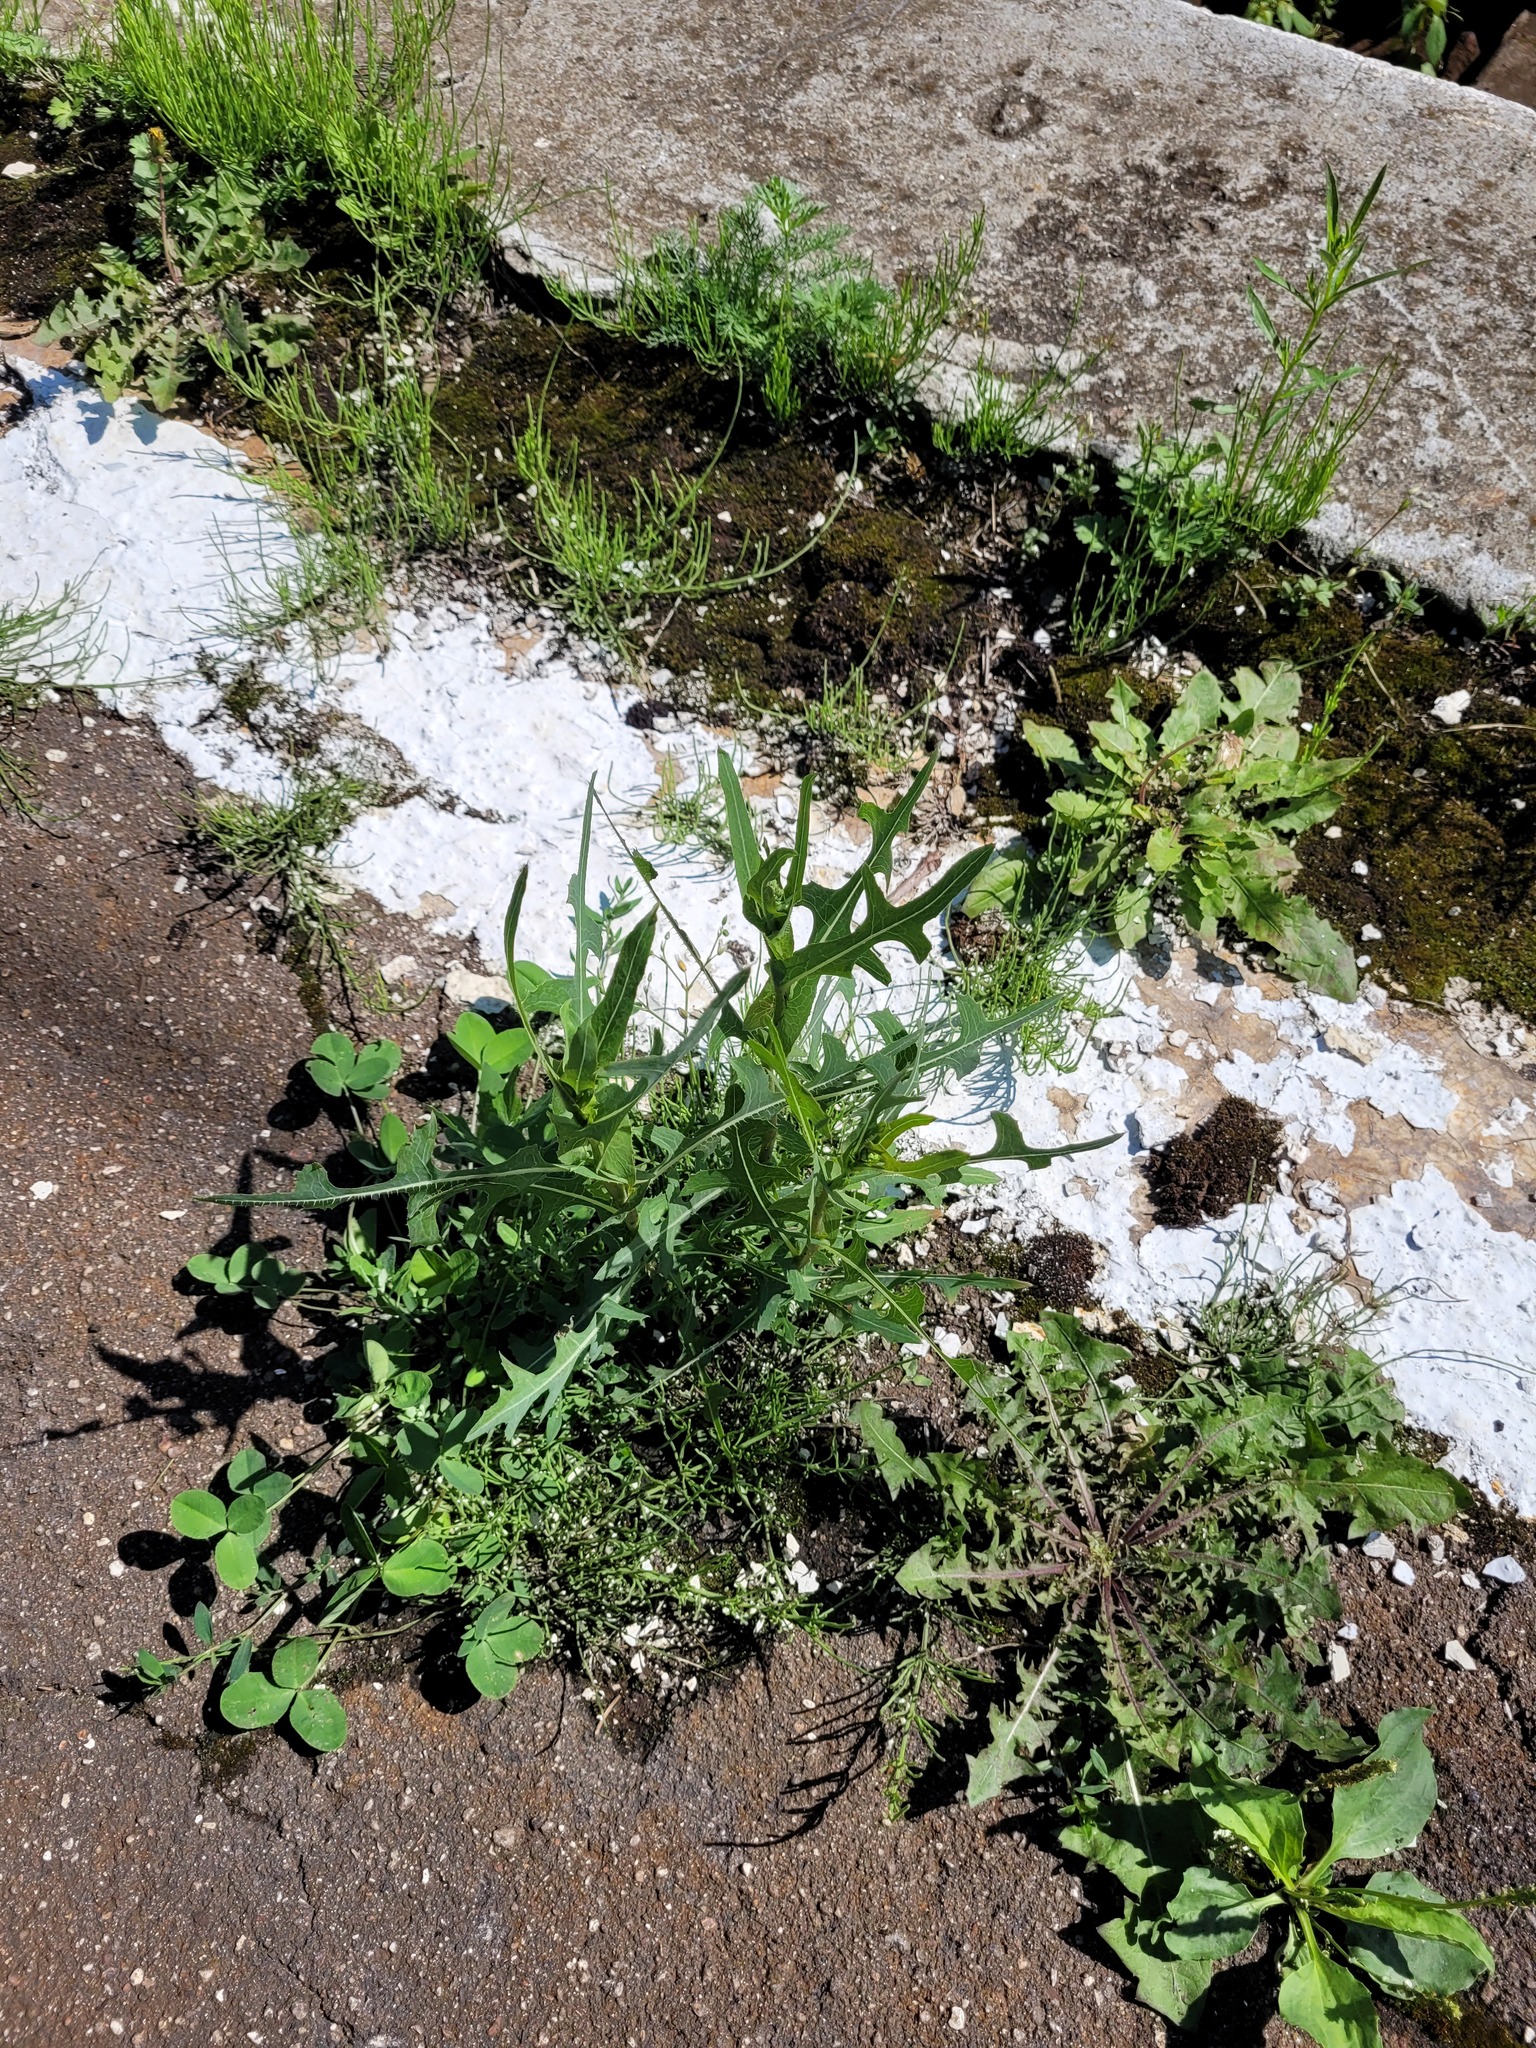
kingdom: Plantae
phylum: Tracheophyta
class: Magnoliopsida
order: Asterales
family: Asteraceae
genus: Lactuca
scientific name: Lactuca serriola
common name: Prickly lettuce
